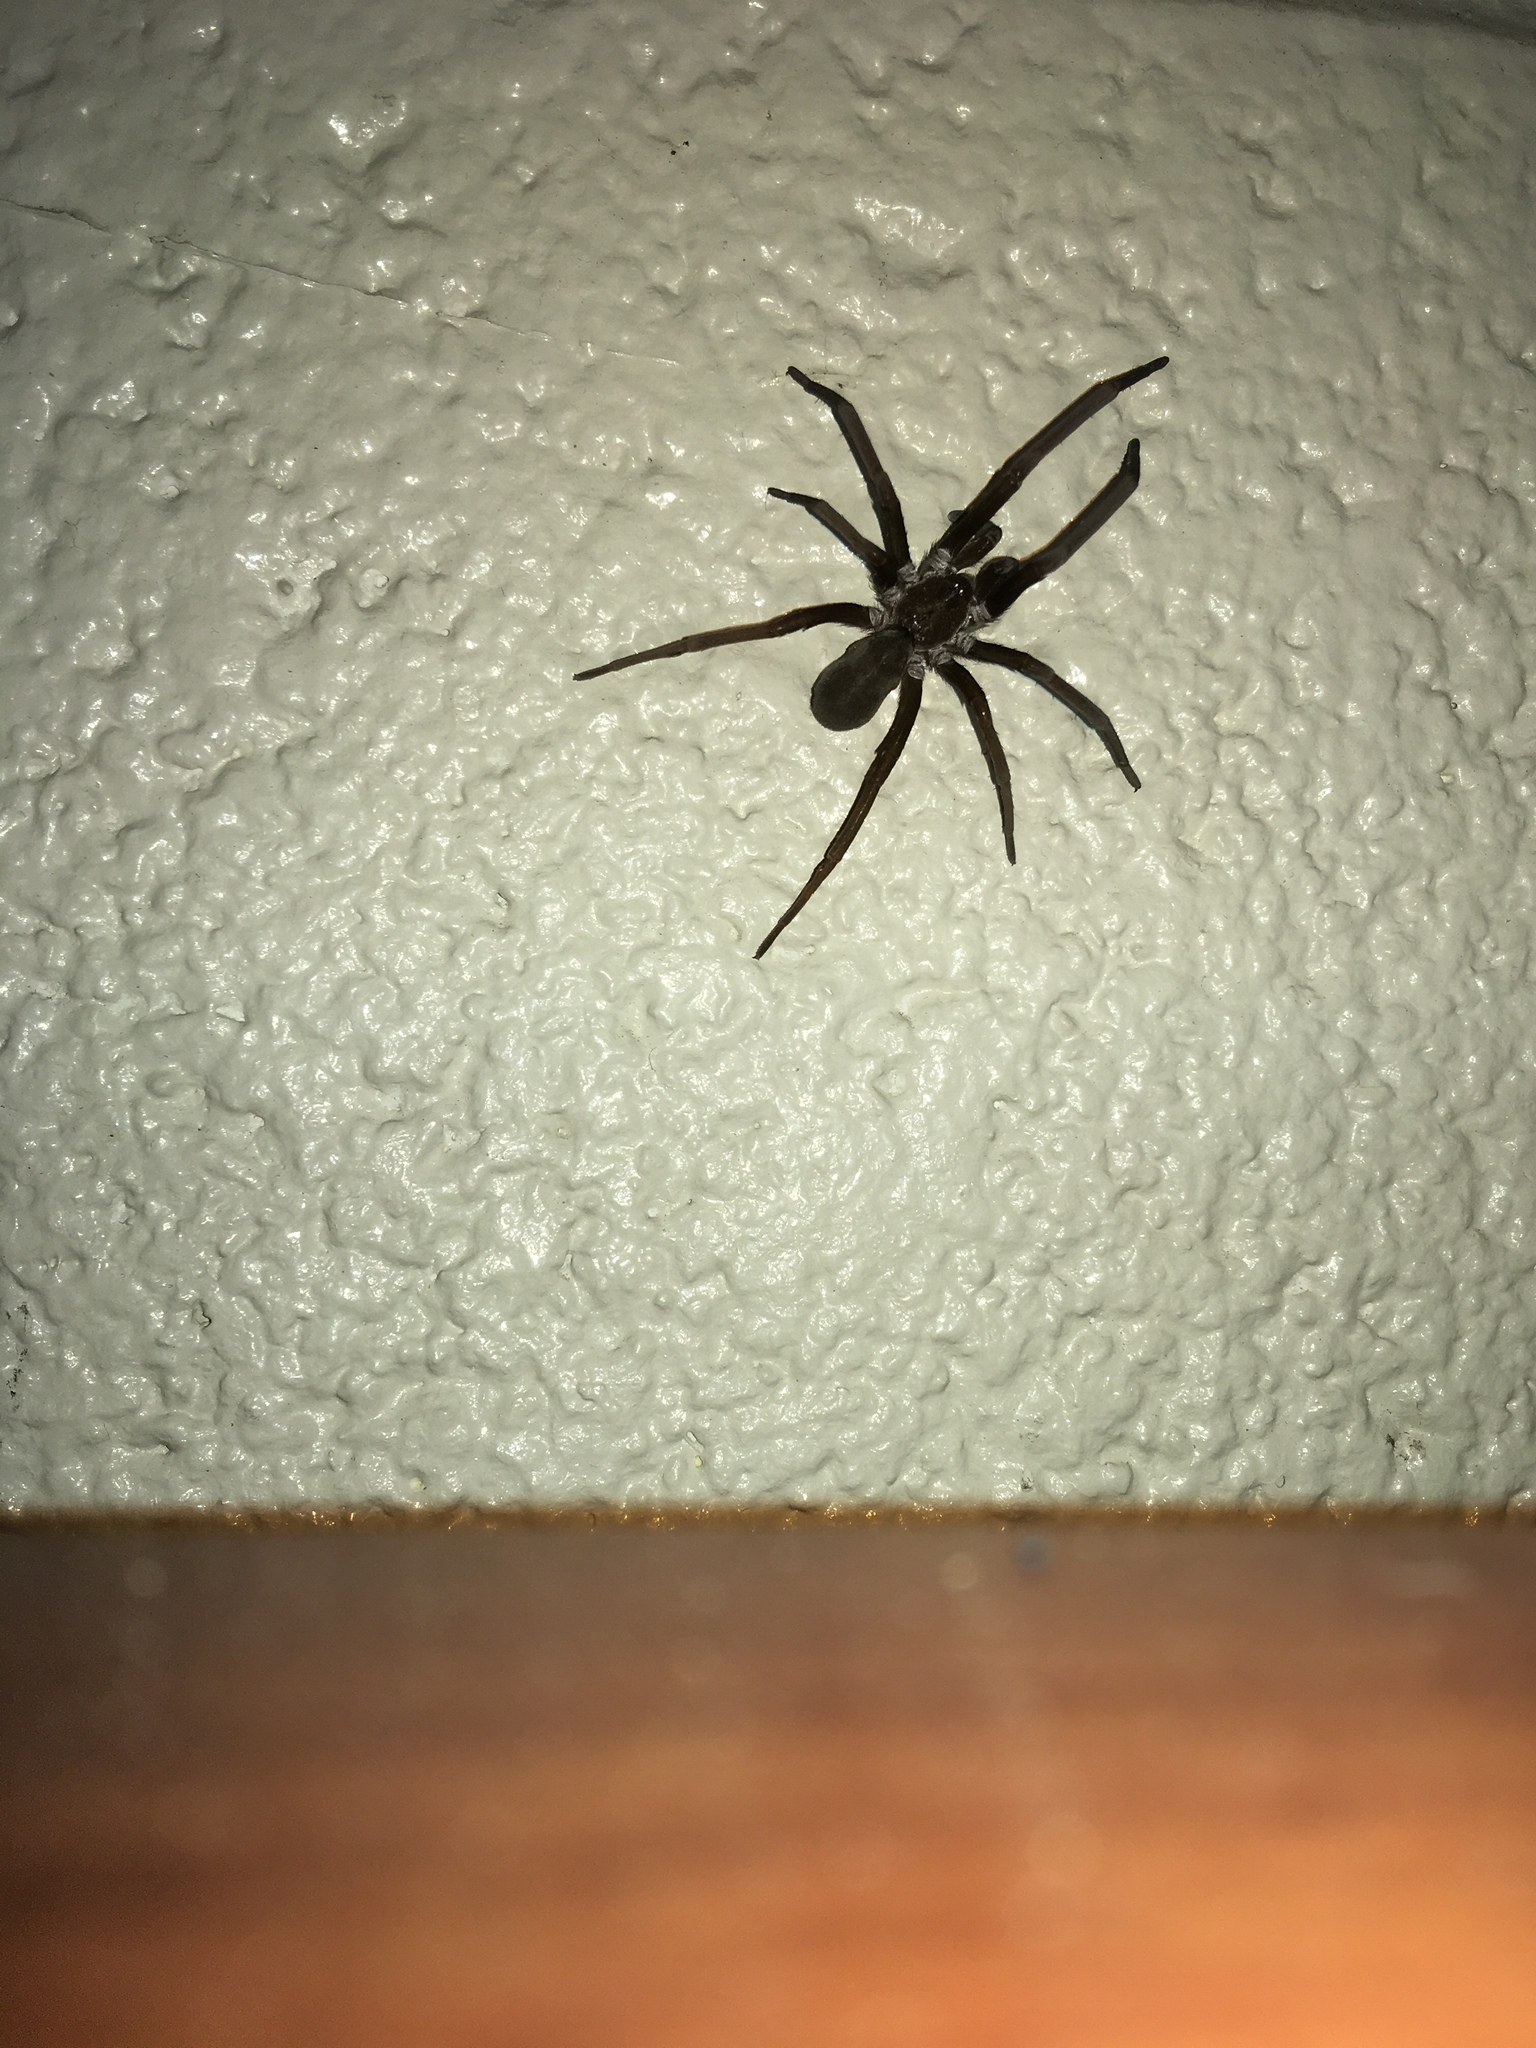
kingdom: Animalia
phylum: Arthropoda
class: Arachnida
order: Araneae
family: Filistatidae
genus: Kukulcania
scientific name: Kukulcania hibernalis
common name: Crevice weaver
